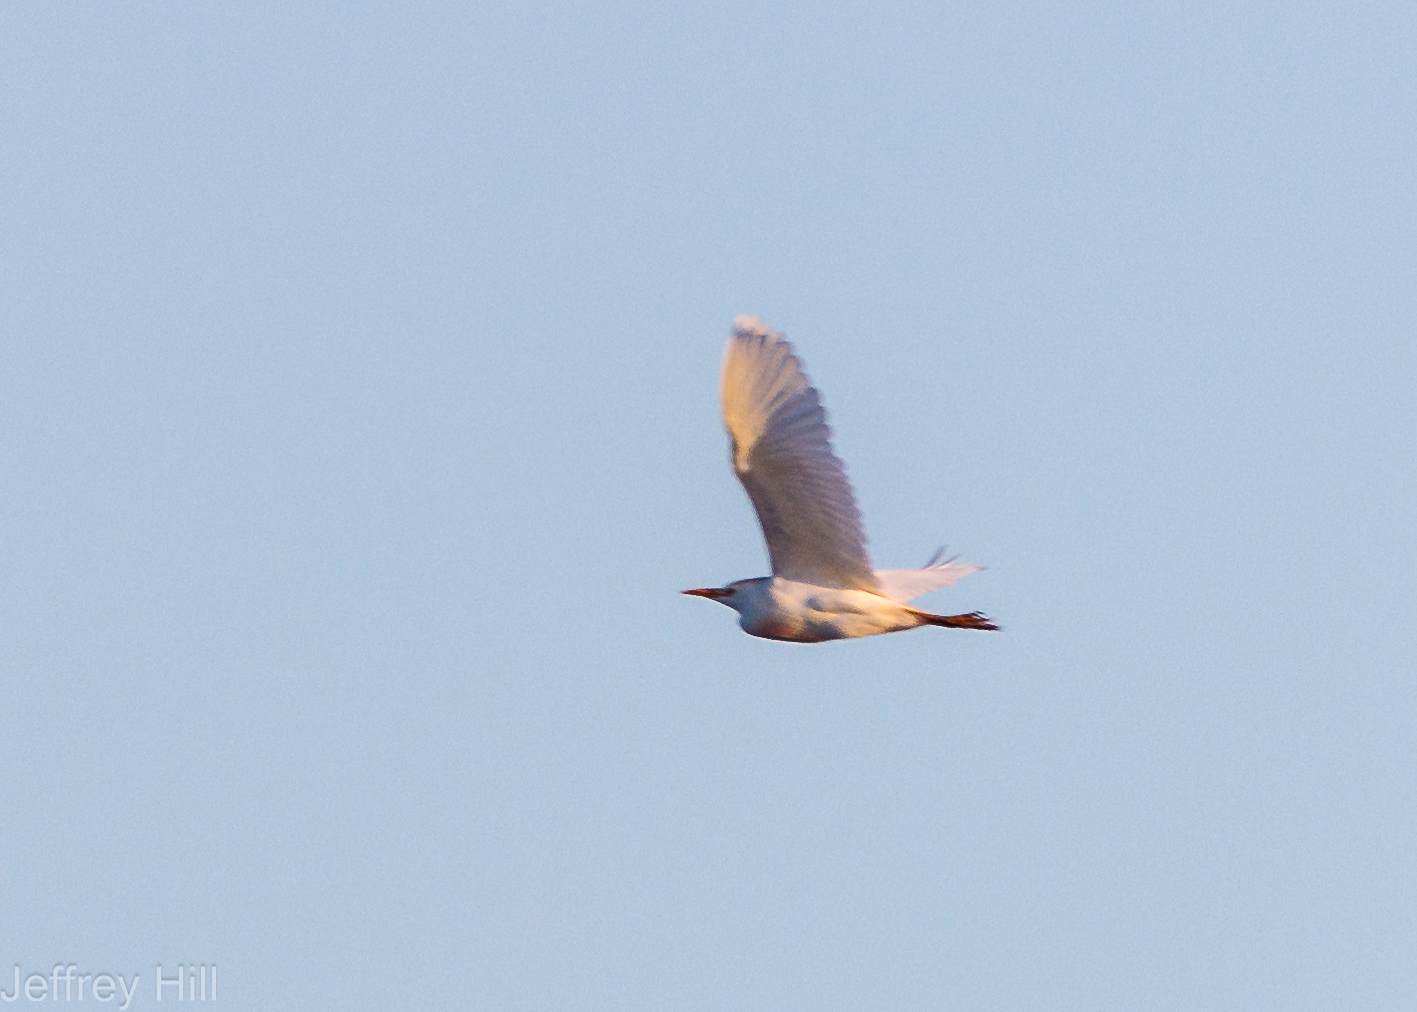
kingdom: Animalia
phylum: Chordata
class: Aves
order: Pelecaniformes
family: Ardeidae
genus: Bubulcus
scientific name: Bubulcus ibis
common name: Cattle egret
